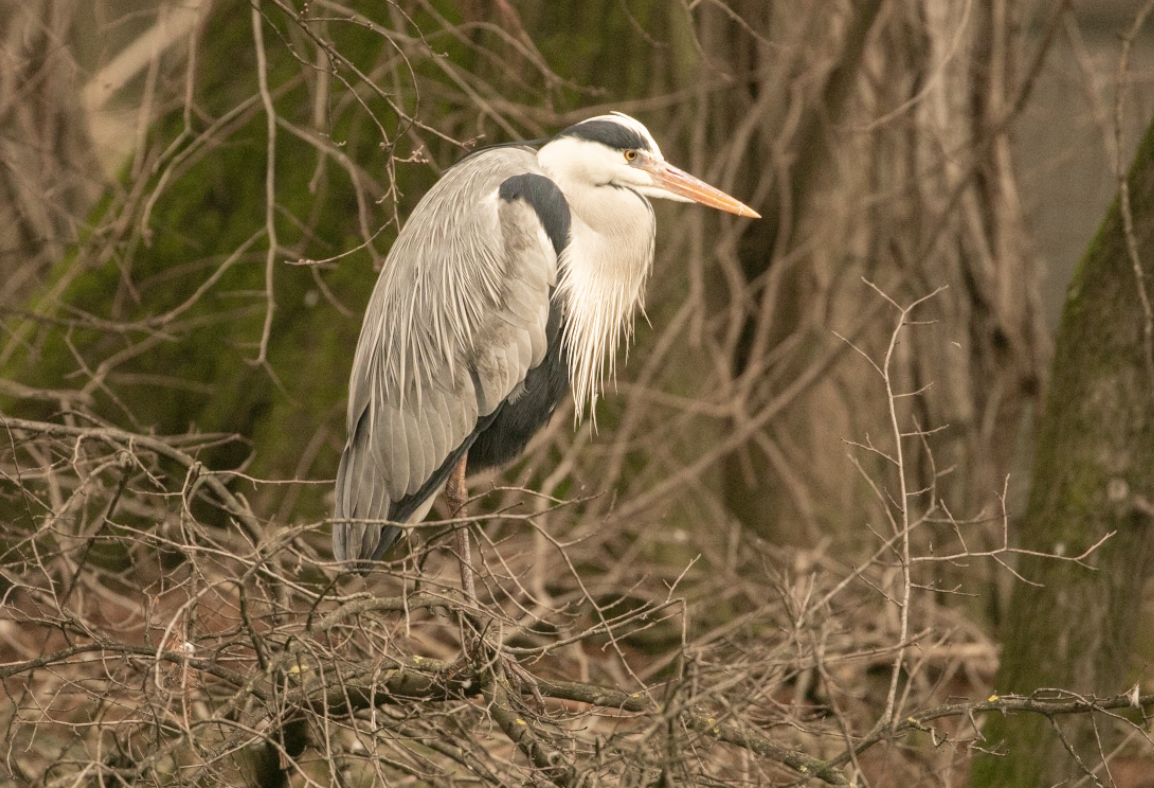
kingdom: Animalia
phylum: Chordata
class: Aves
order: Pelecaniformes
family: Ardeidae
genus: Ardea
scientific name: Ardea cinerea
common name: Grey heron
